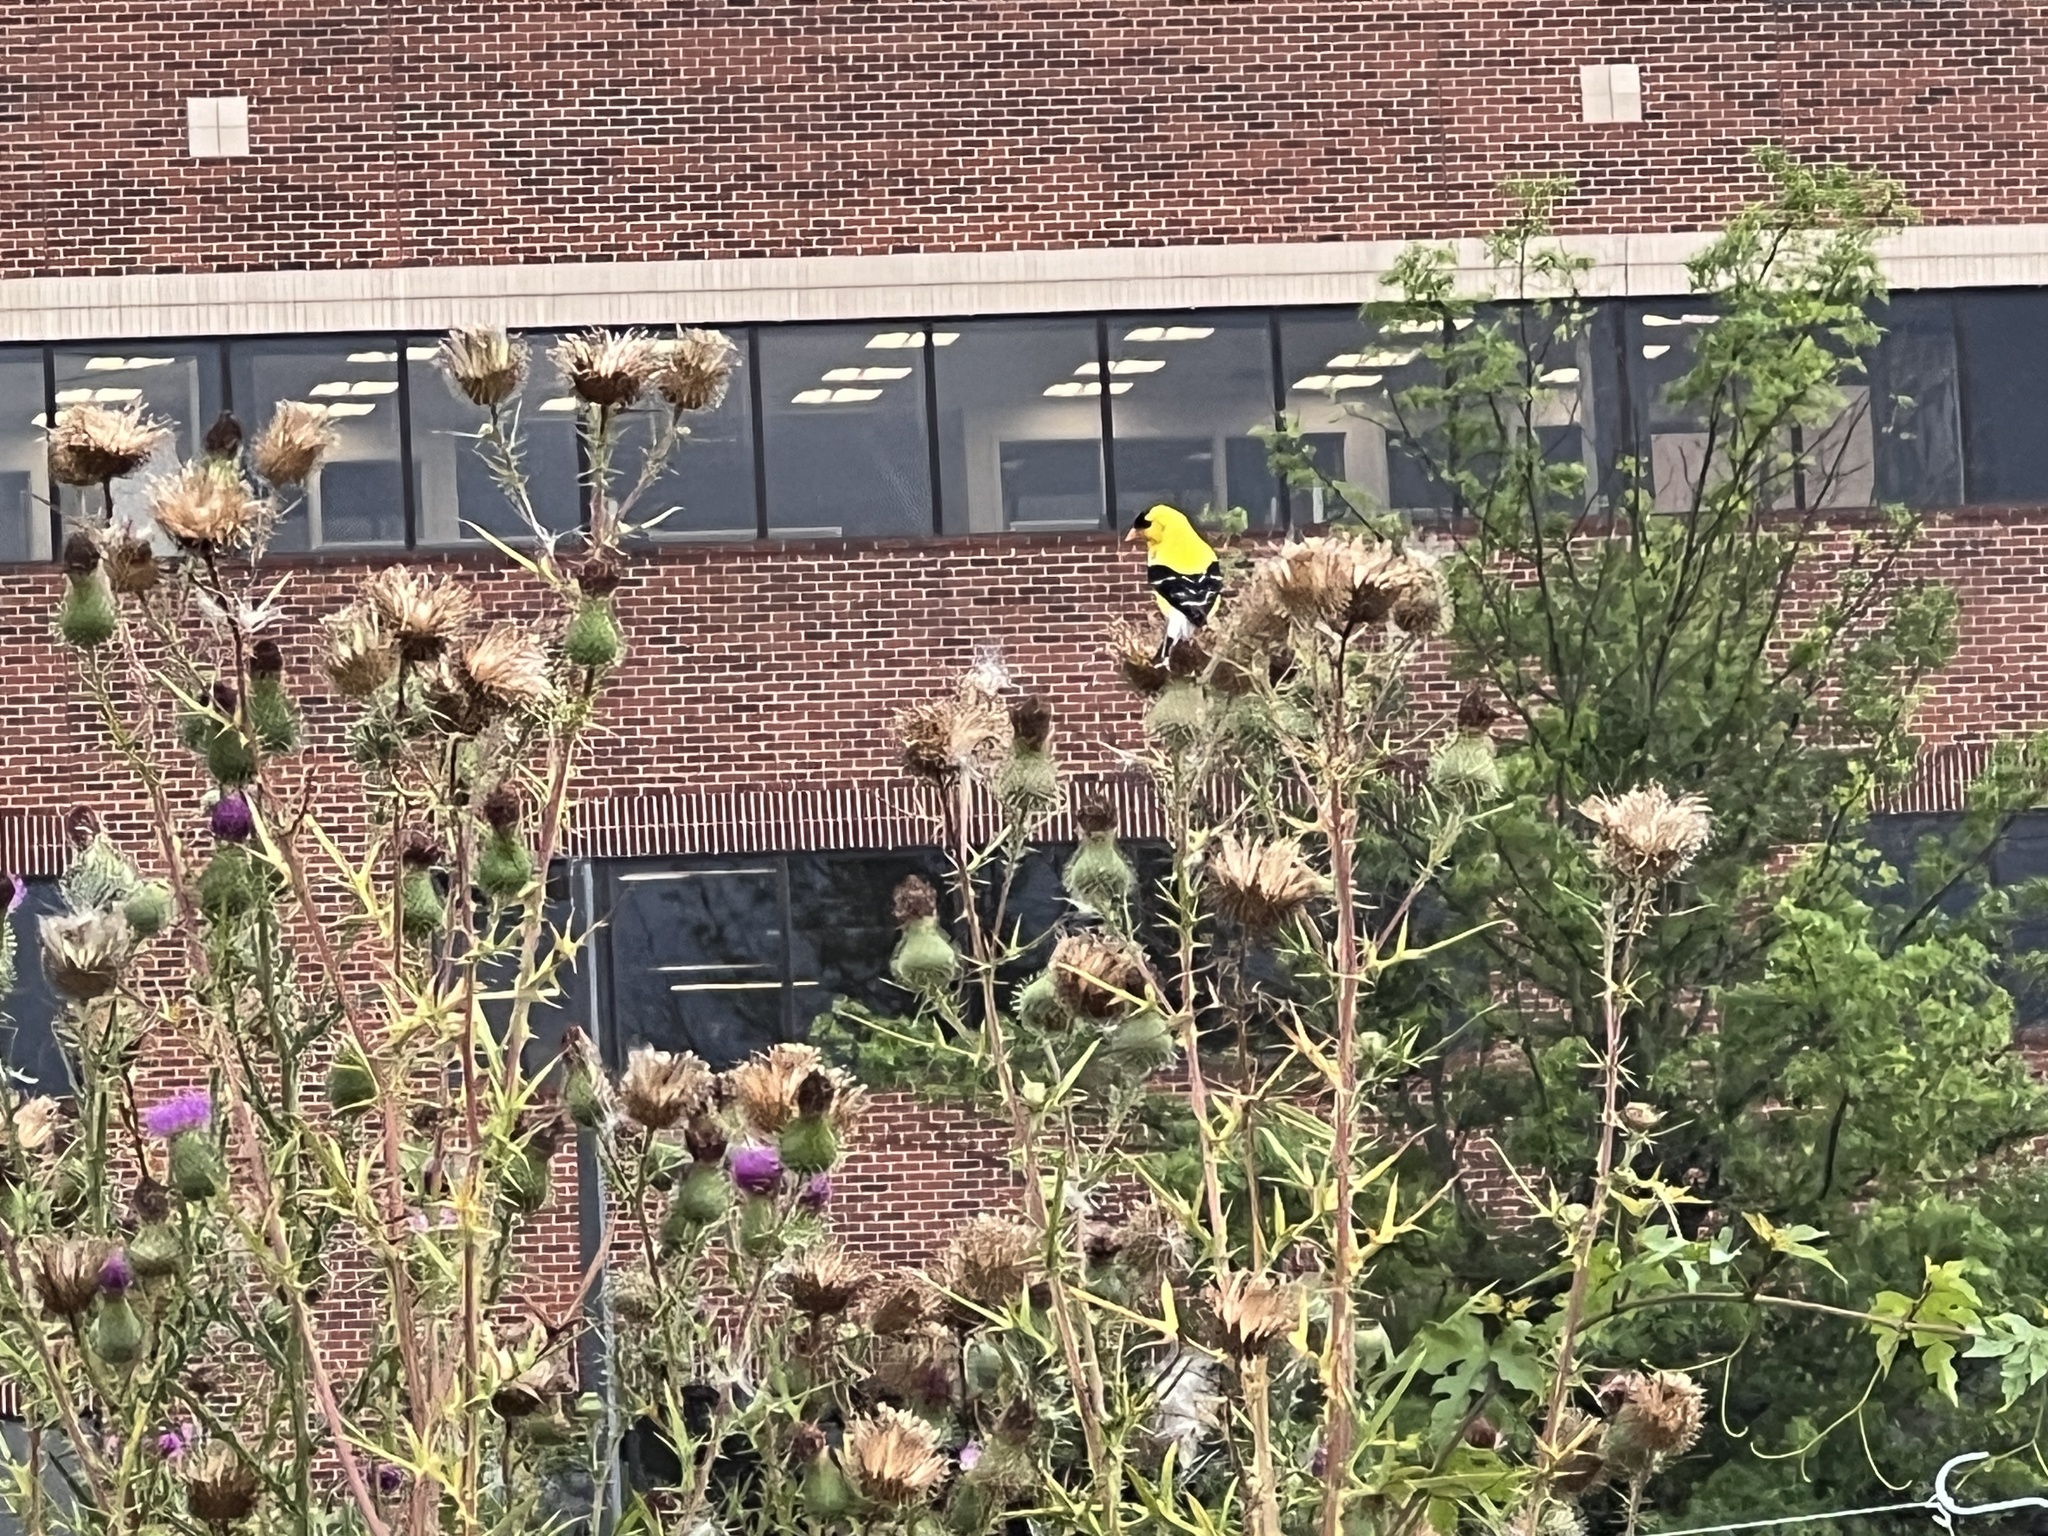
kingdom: Animalia
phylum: Chordata
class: Aves
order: Passeriformes
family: Fringillidae
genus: Spinus
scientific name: Spinus tristis
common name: American goldfinch
